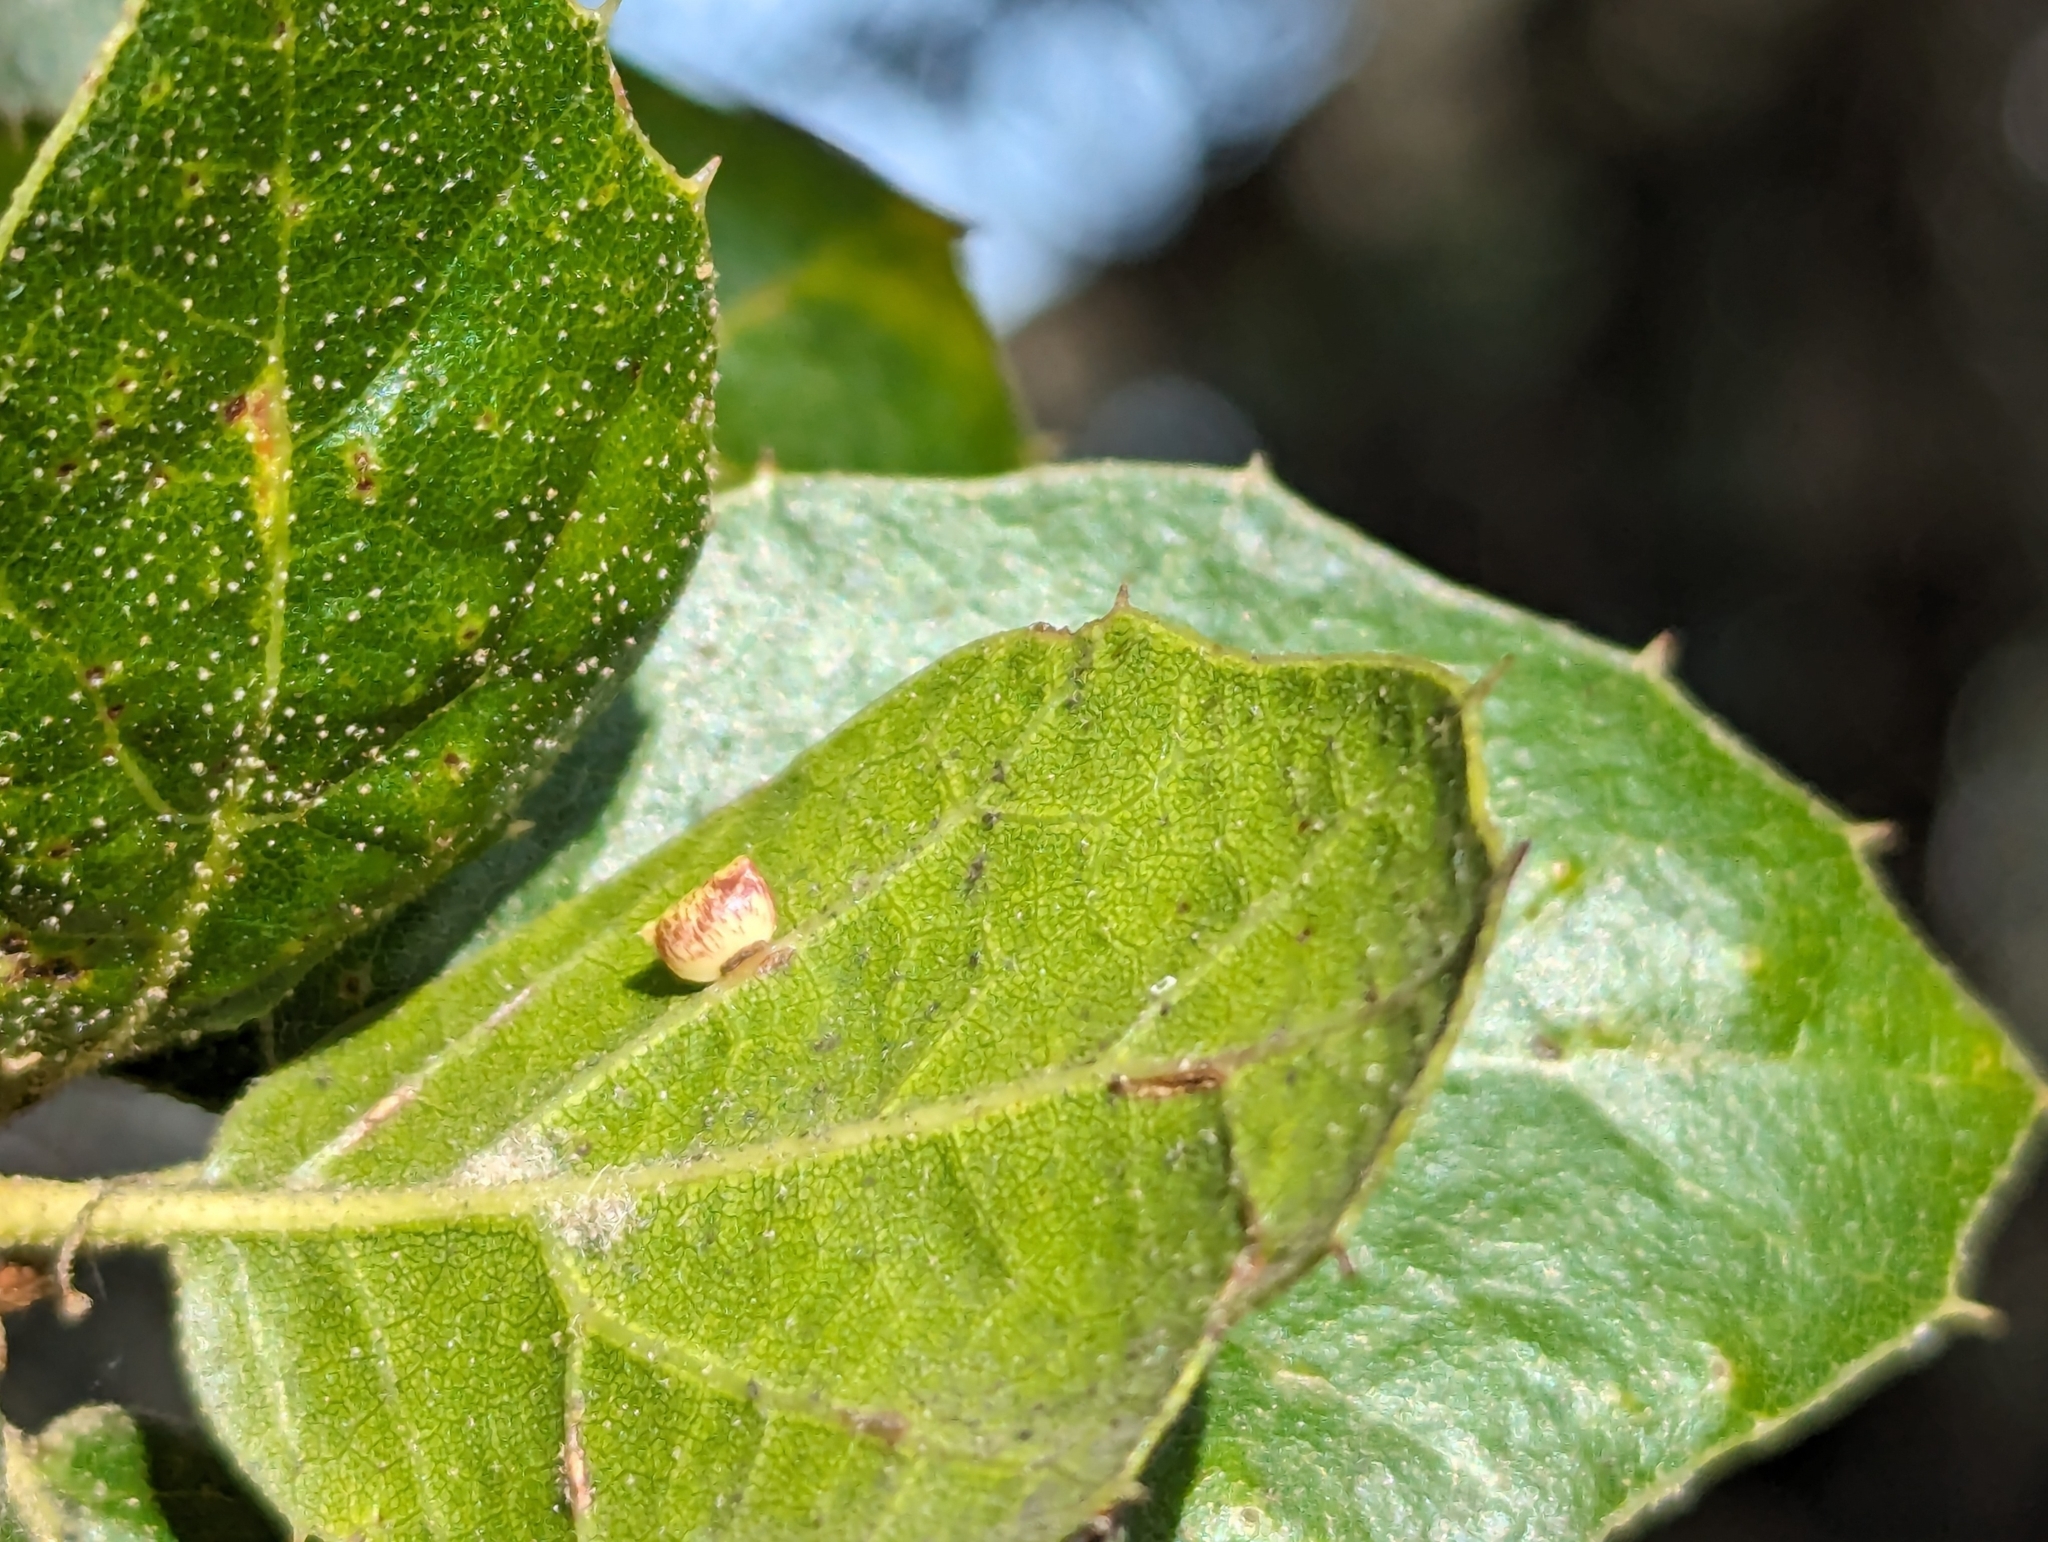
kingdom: Animalia
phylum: Arthropoda
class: Insecta
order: Hymenoptera
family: Cynipidae
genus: Dryocosmus
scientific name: Dryocosmus
